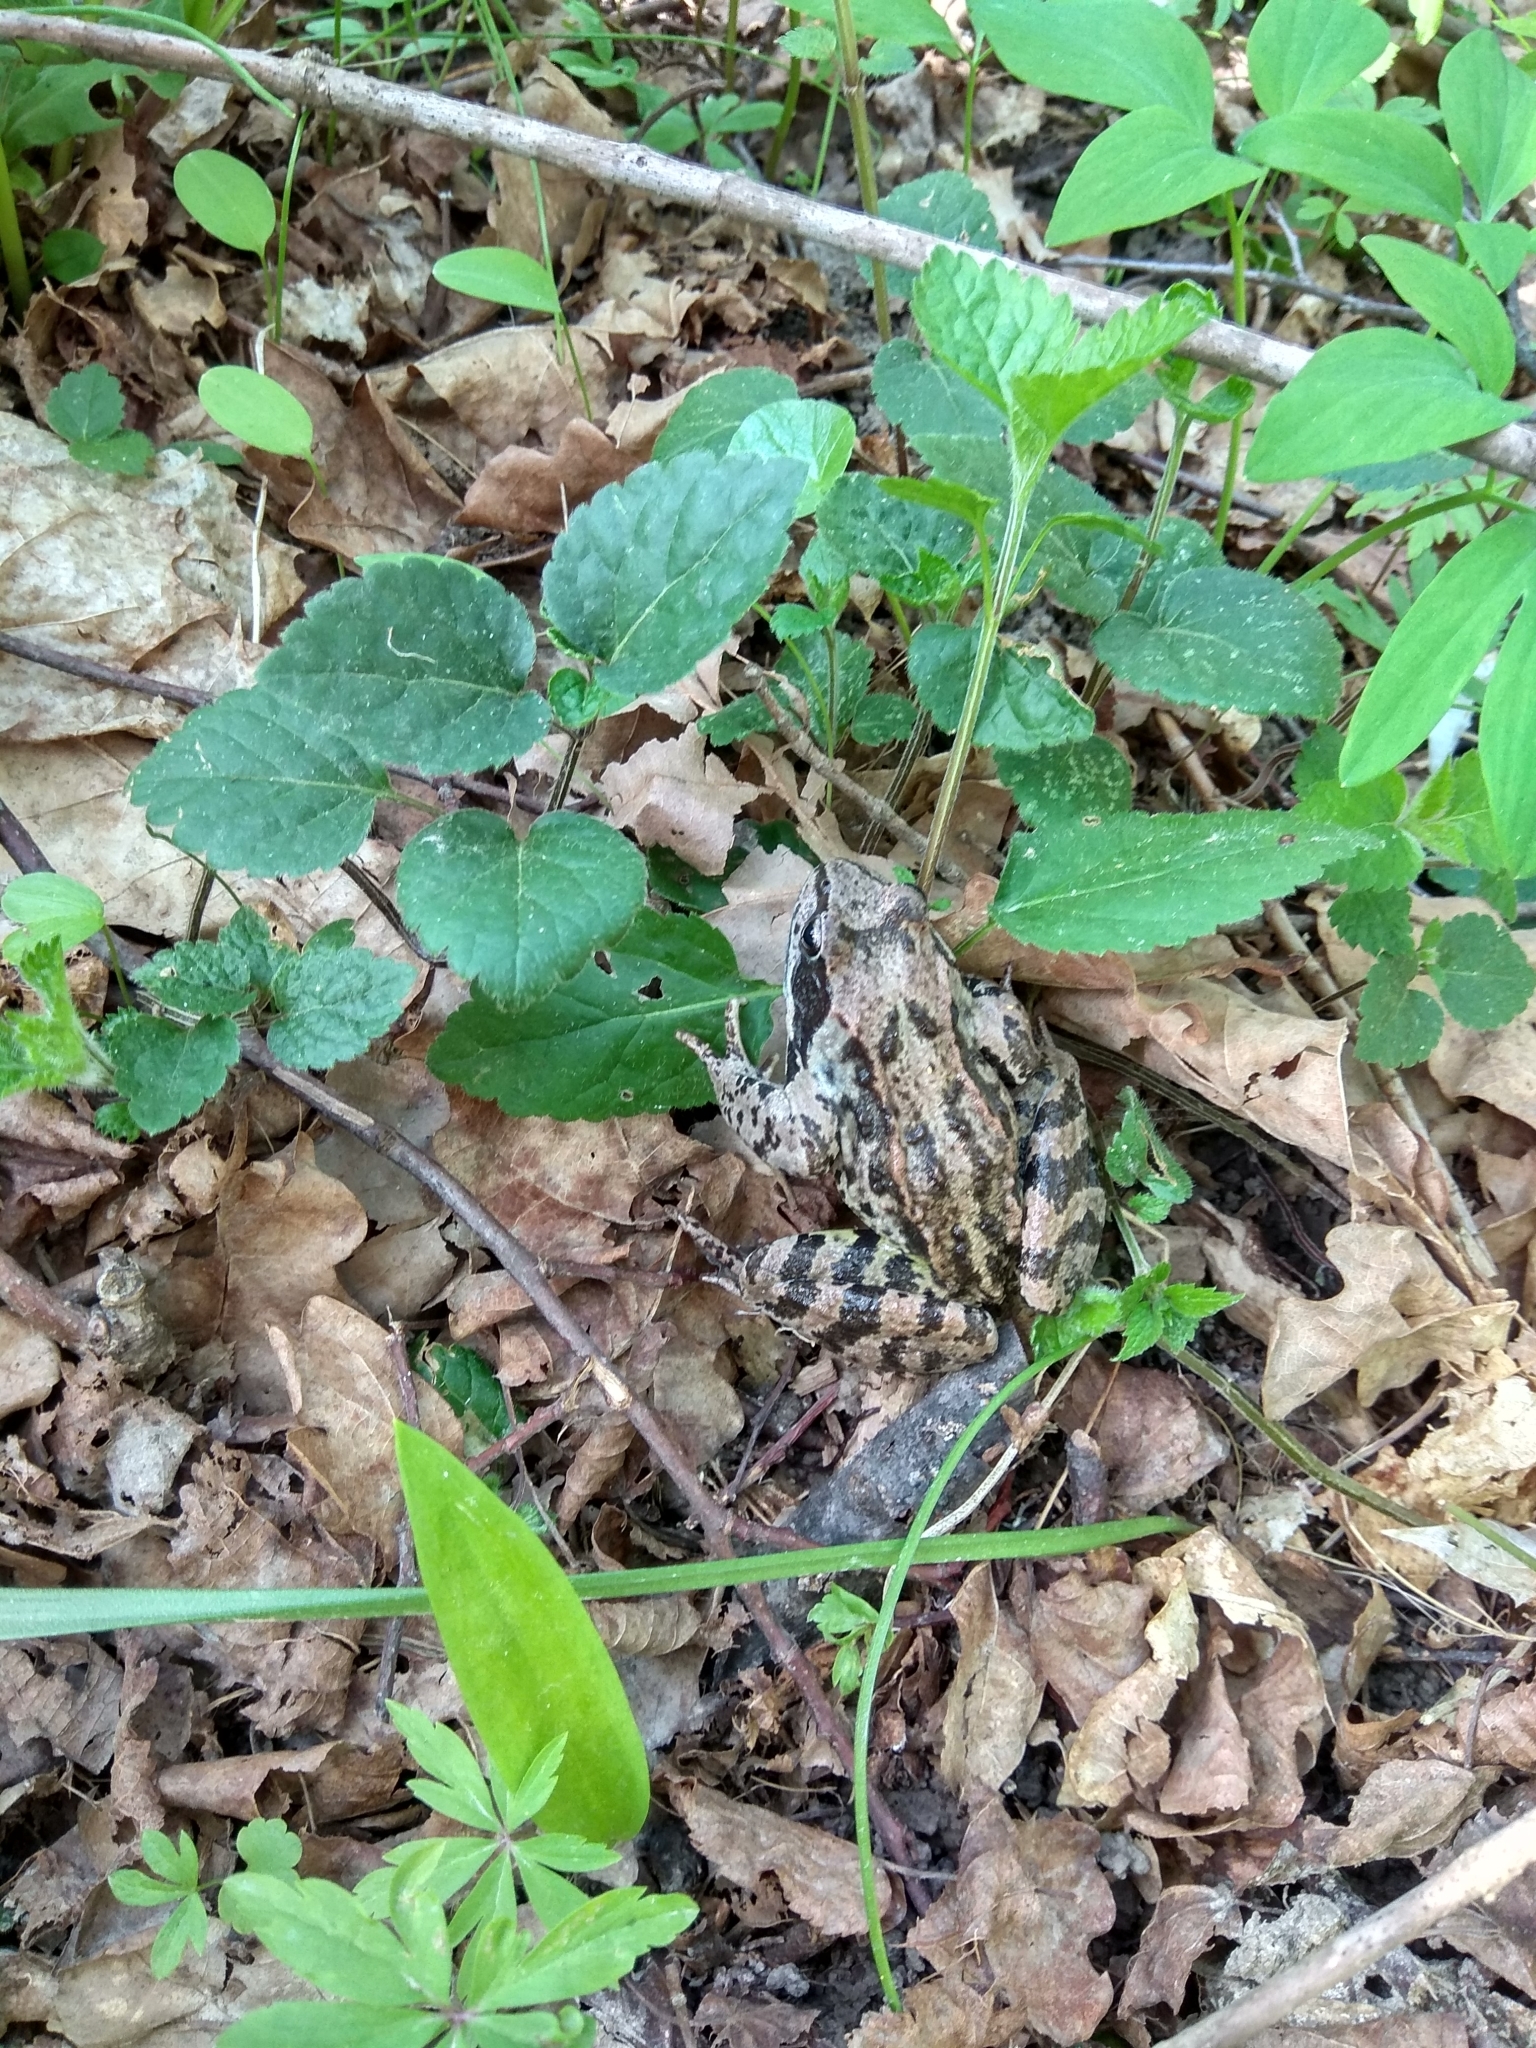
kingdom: Animalia
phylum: Chordata
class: Amphibia
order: Anura
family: Ranidae
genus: Rana
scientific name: Rana temporaria
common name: Common frog
